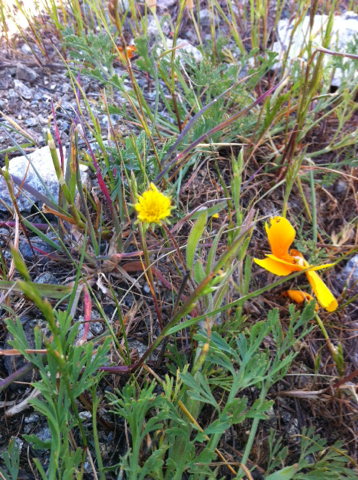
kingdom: Plantae
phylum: Tracheophyta
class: Magnoliopsida
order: Asterales
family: Asteraceae
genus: Agoseris
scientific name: Agoseris heterophylla
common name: Annual agoseris
